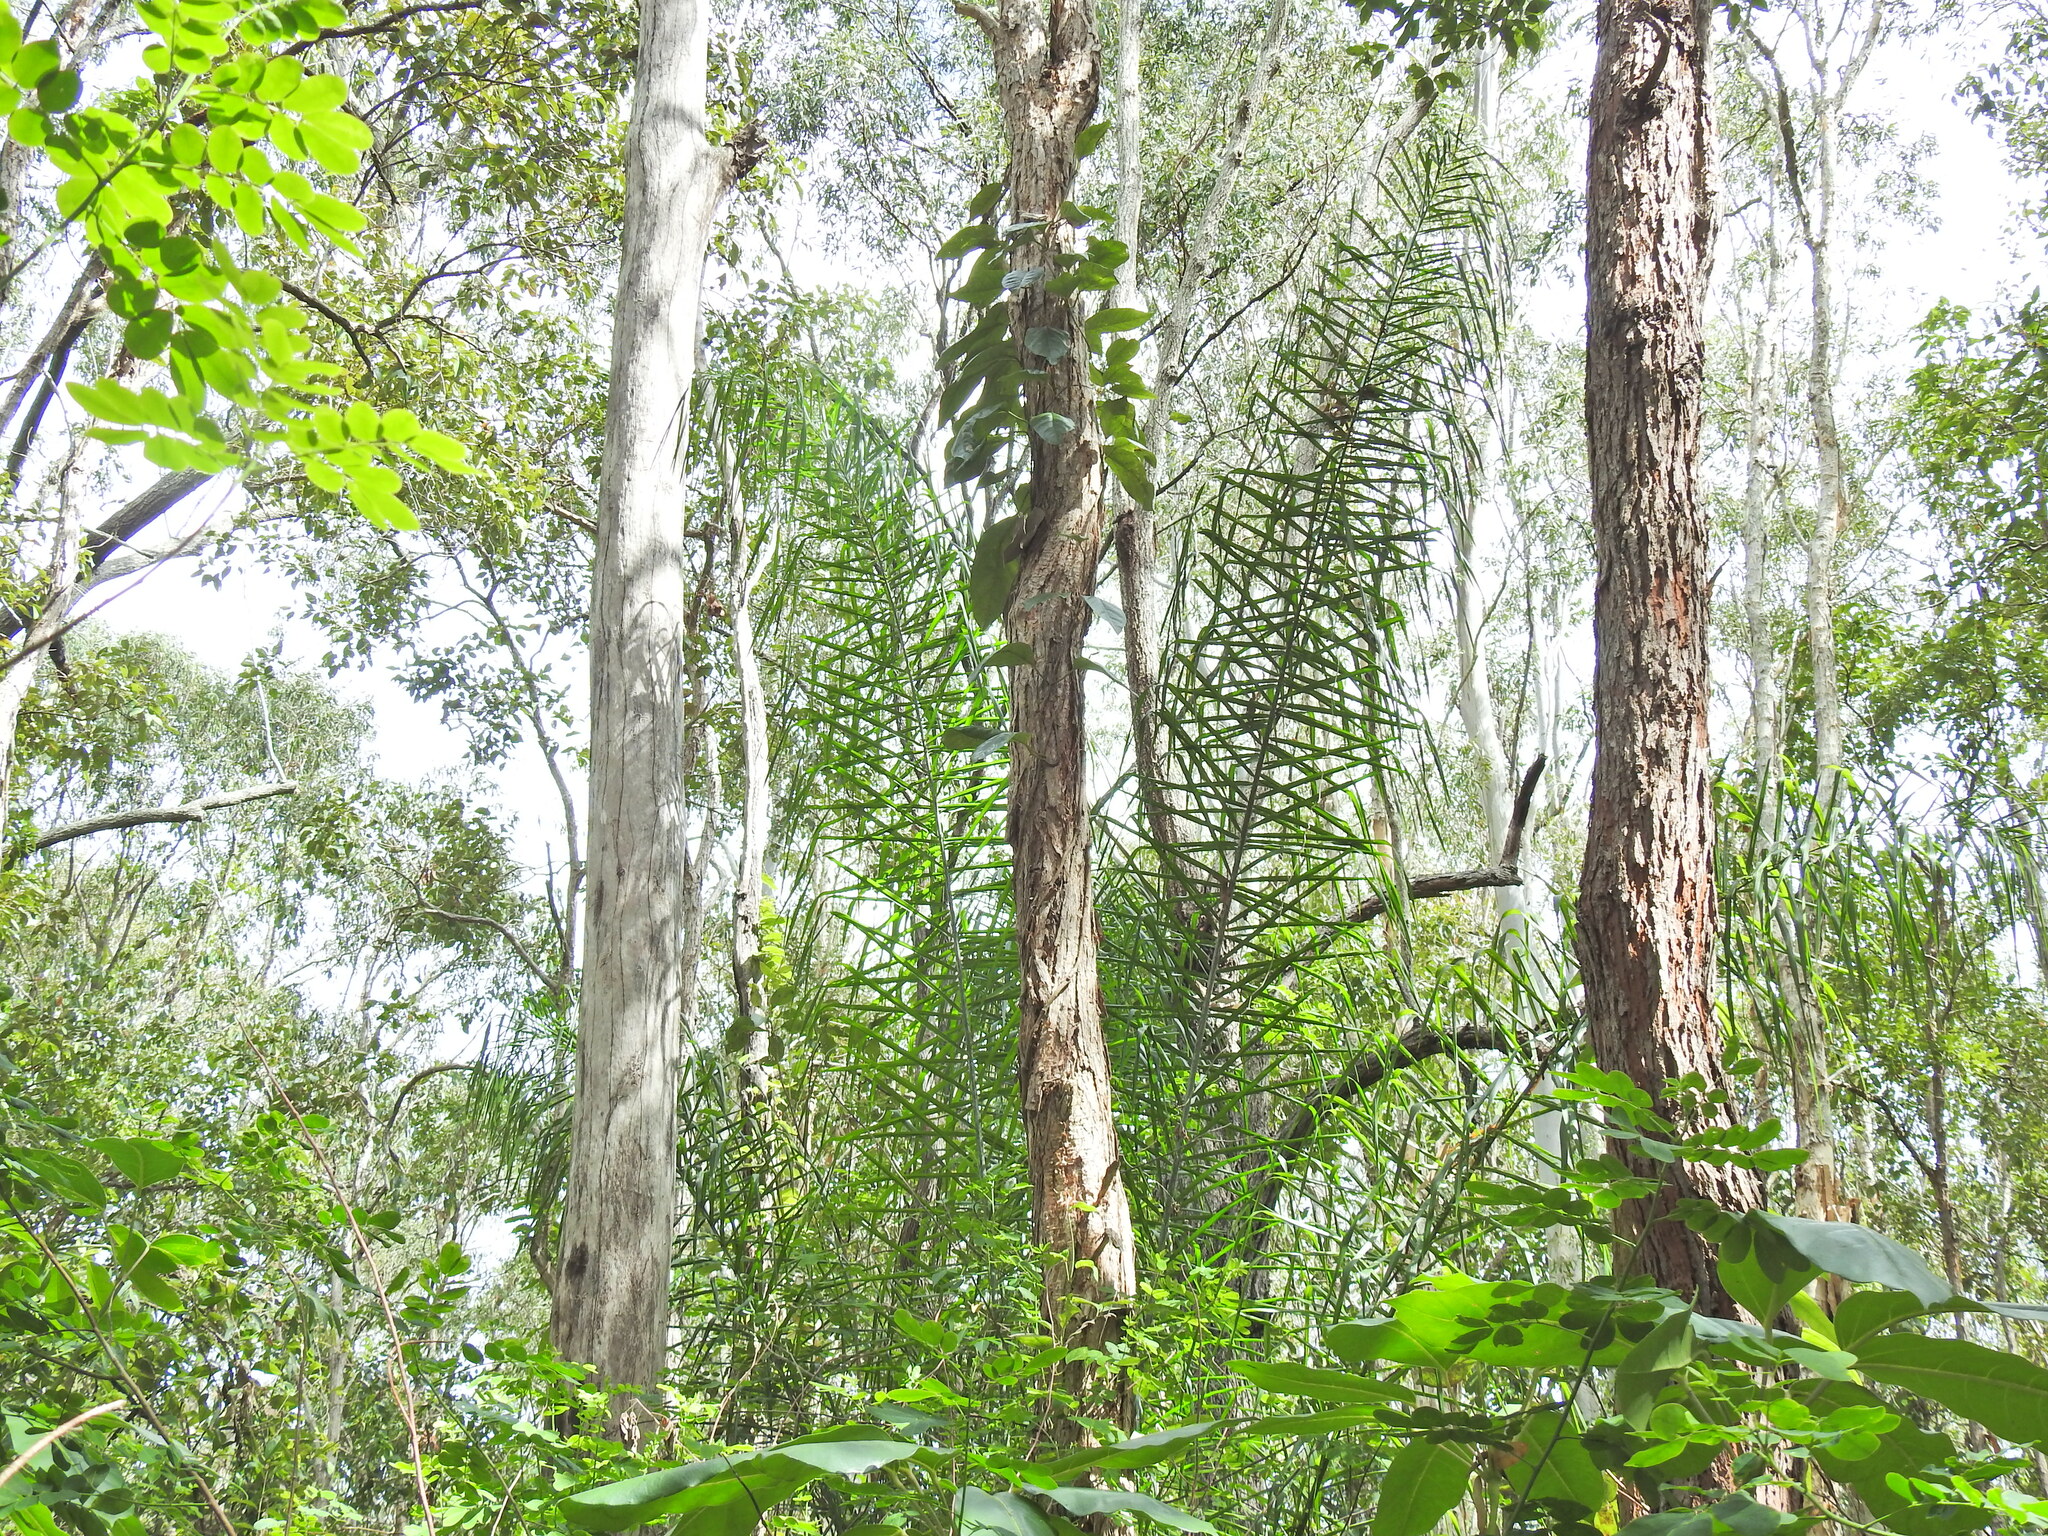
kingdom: Plantae
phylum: Tracheophyta
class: Liliopsida
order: Arecales
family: Arecaceae
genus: Syagrus
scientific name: Syagrus romanzoffiana
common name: Queen palm
